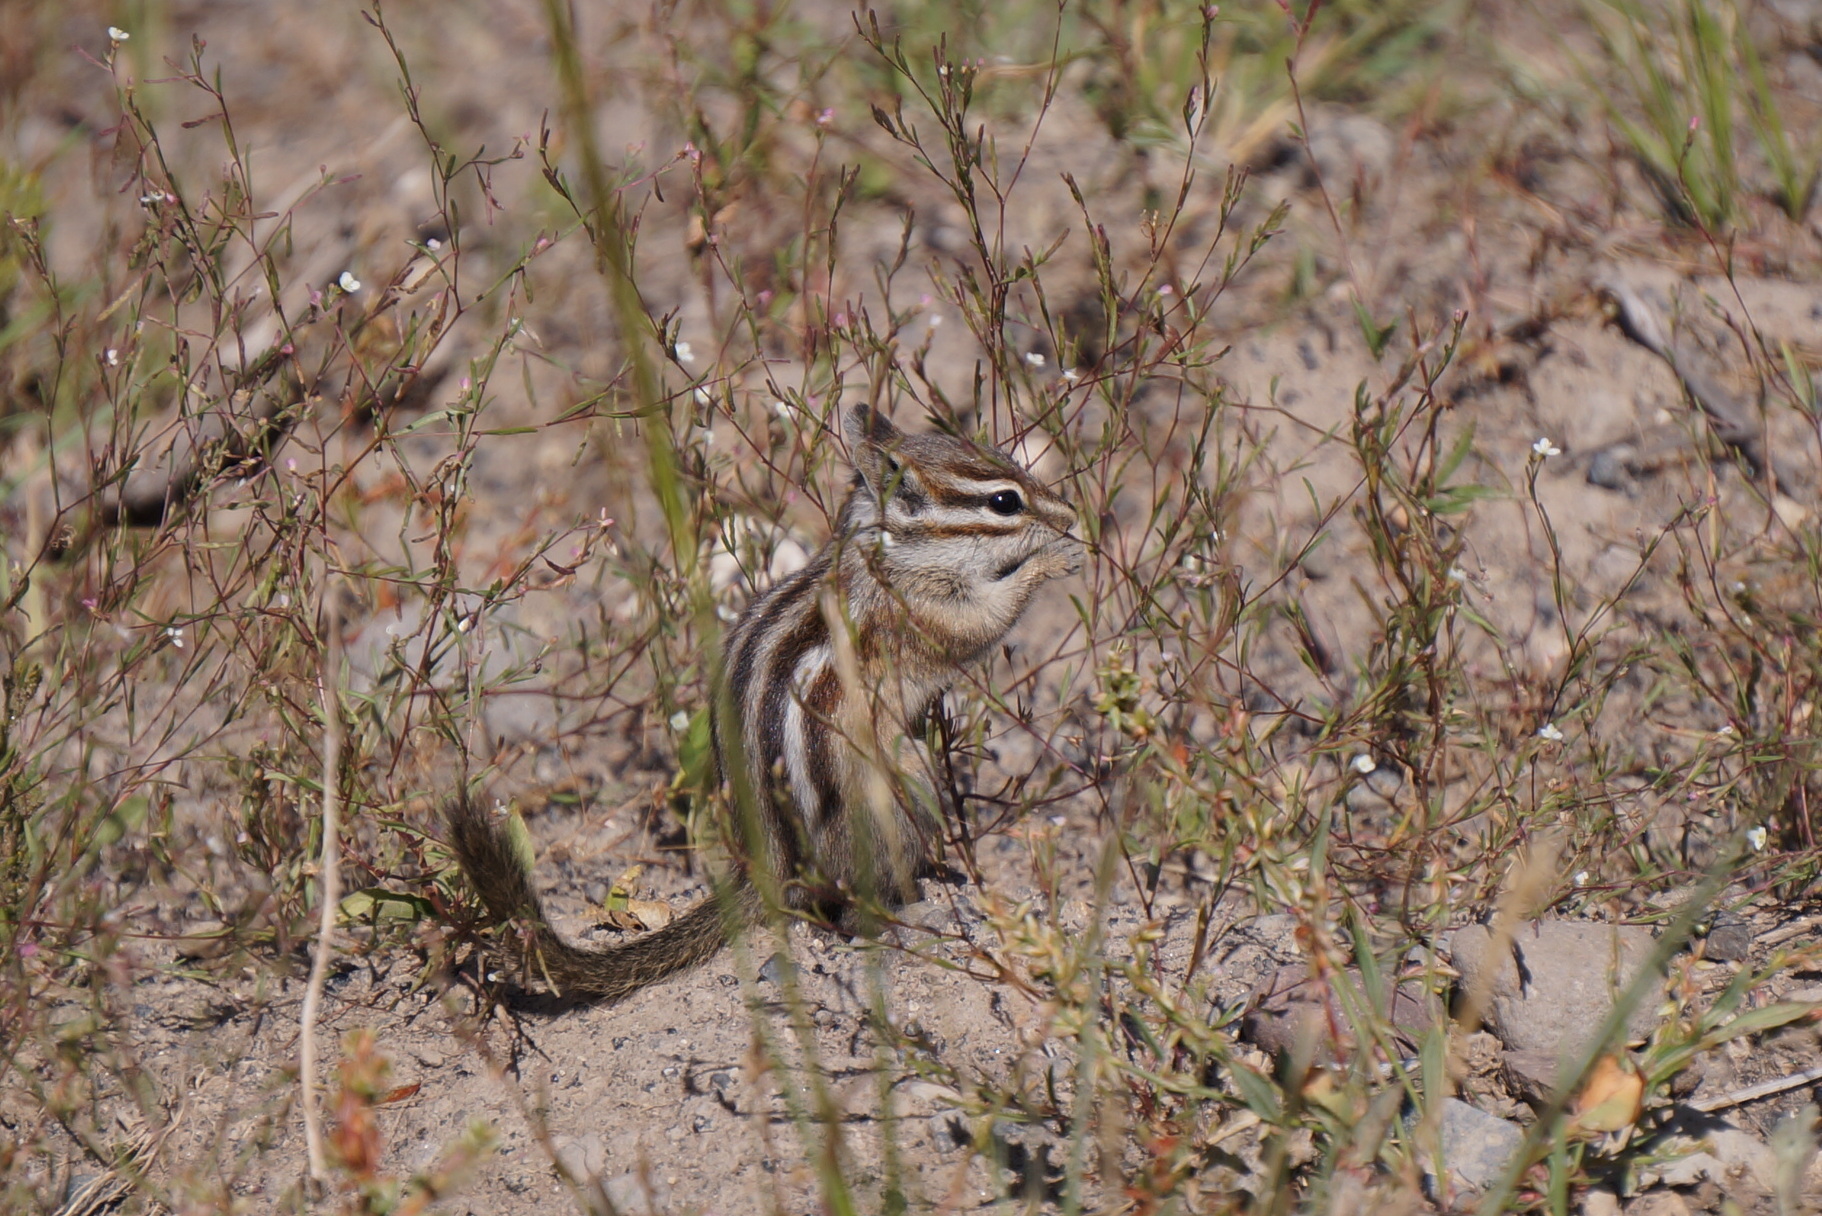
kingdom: Animalia
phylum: Chordata
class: Mammalia
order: Rodentia
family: Sciuridae
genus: Tamias
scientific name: Tamias minimus
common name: Least chipmunk
